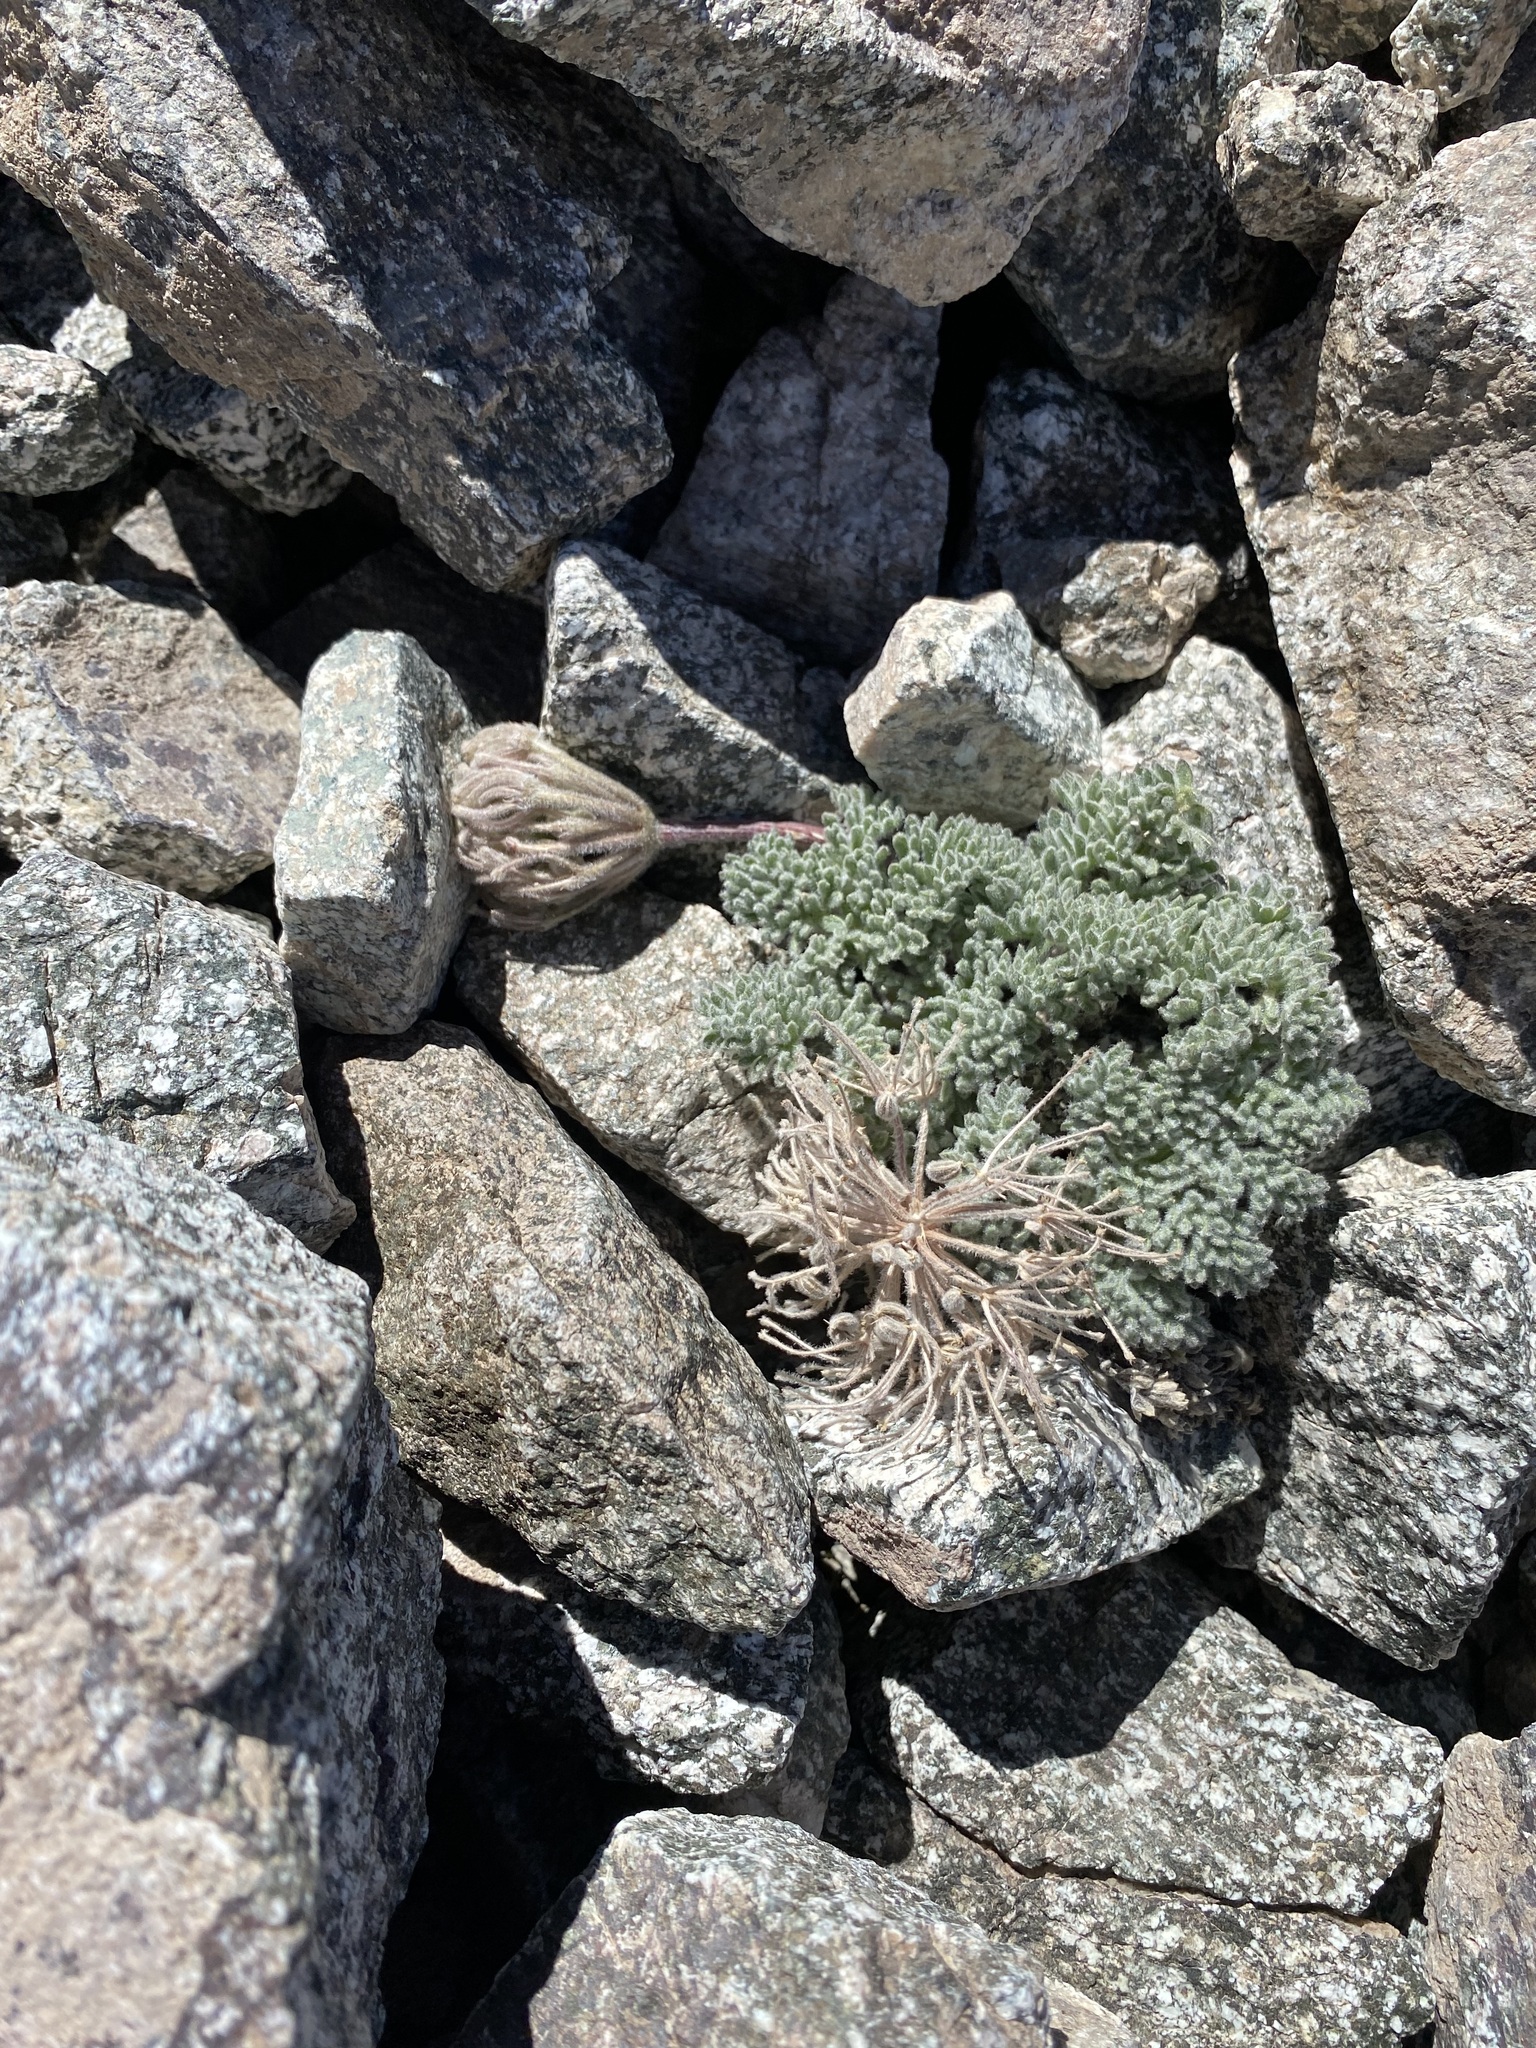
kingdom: Plantae
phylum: Tracheophyta
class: Magnoliopsida
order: Apiales
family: Apiaceae
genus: Oreonana
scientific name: Oreonana vestita
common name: Woolly mountain-parsley
